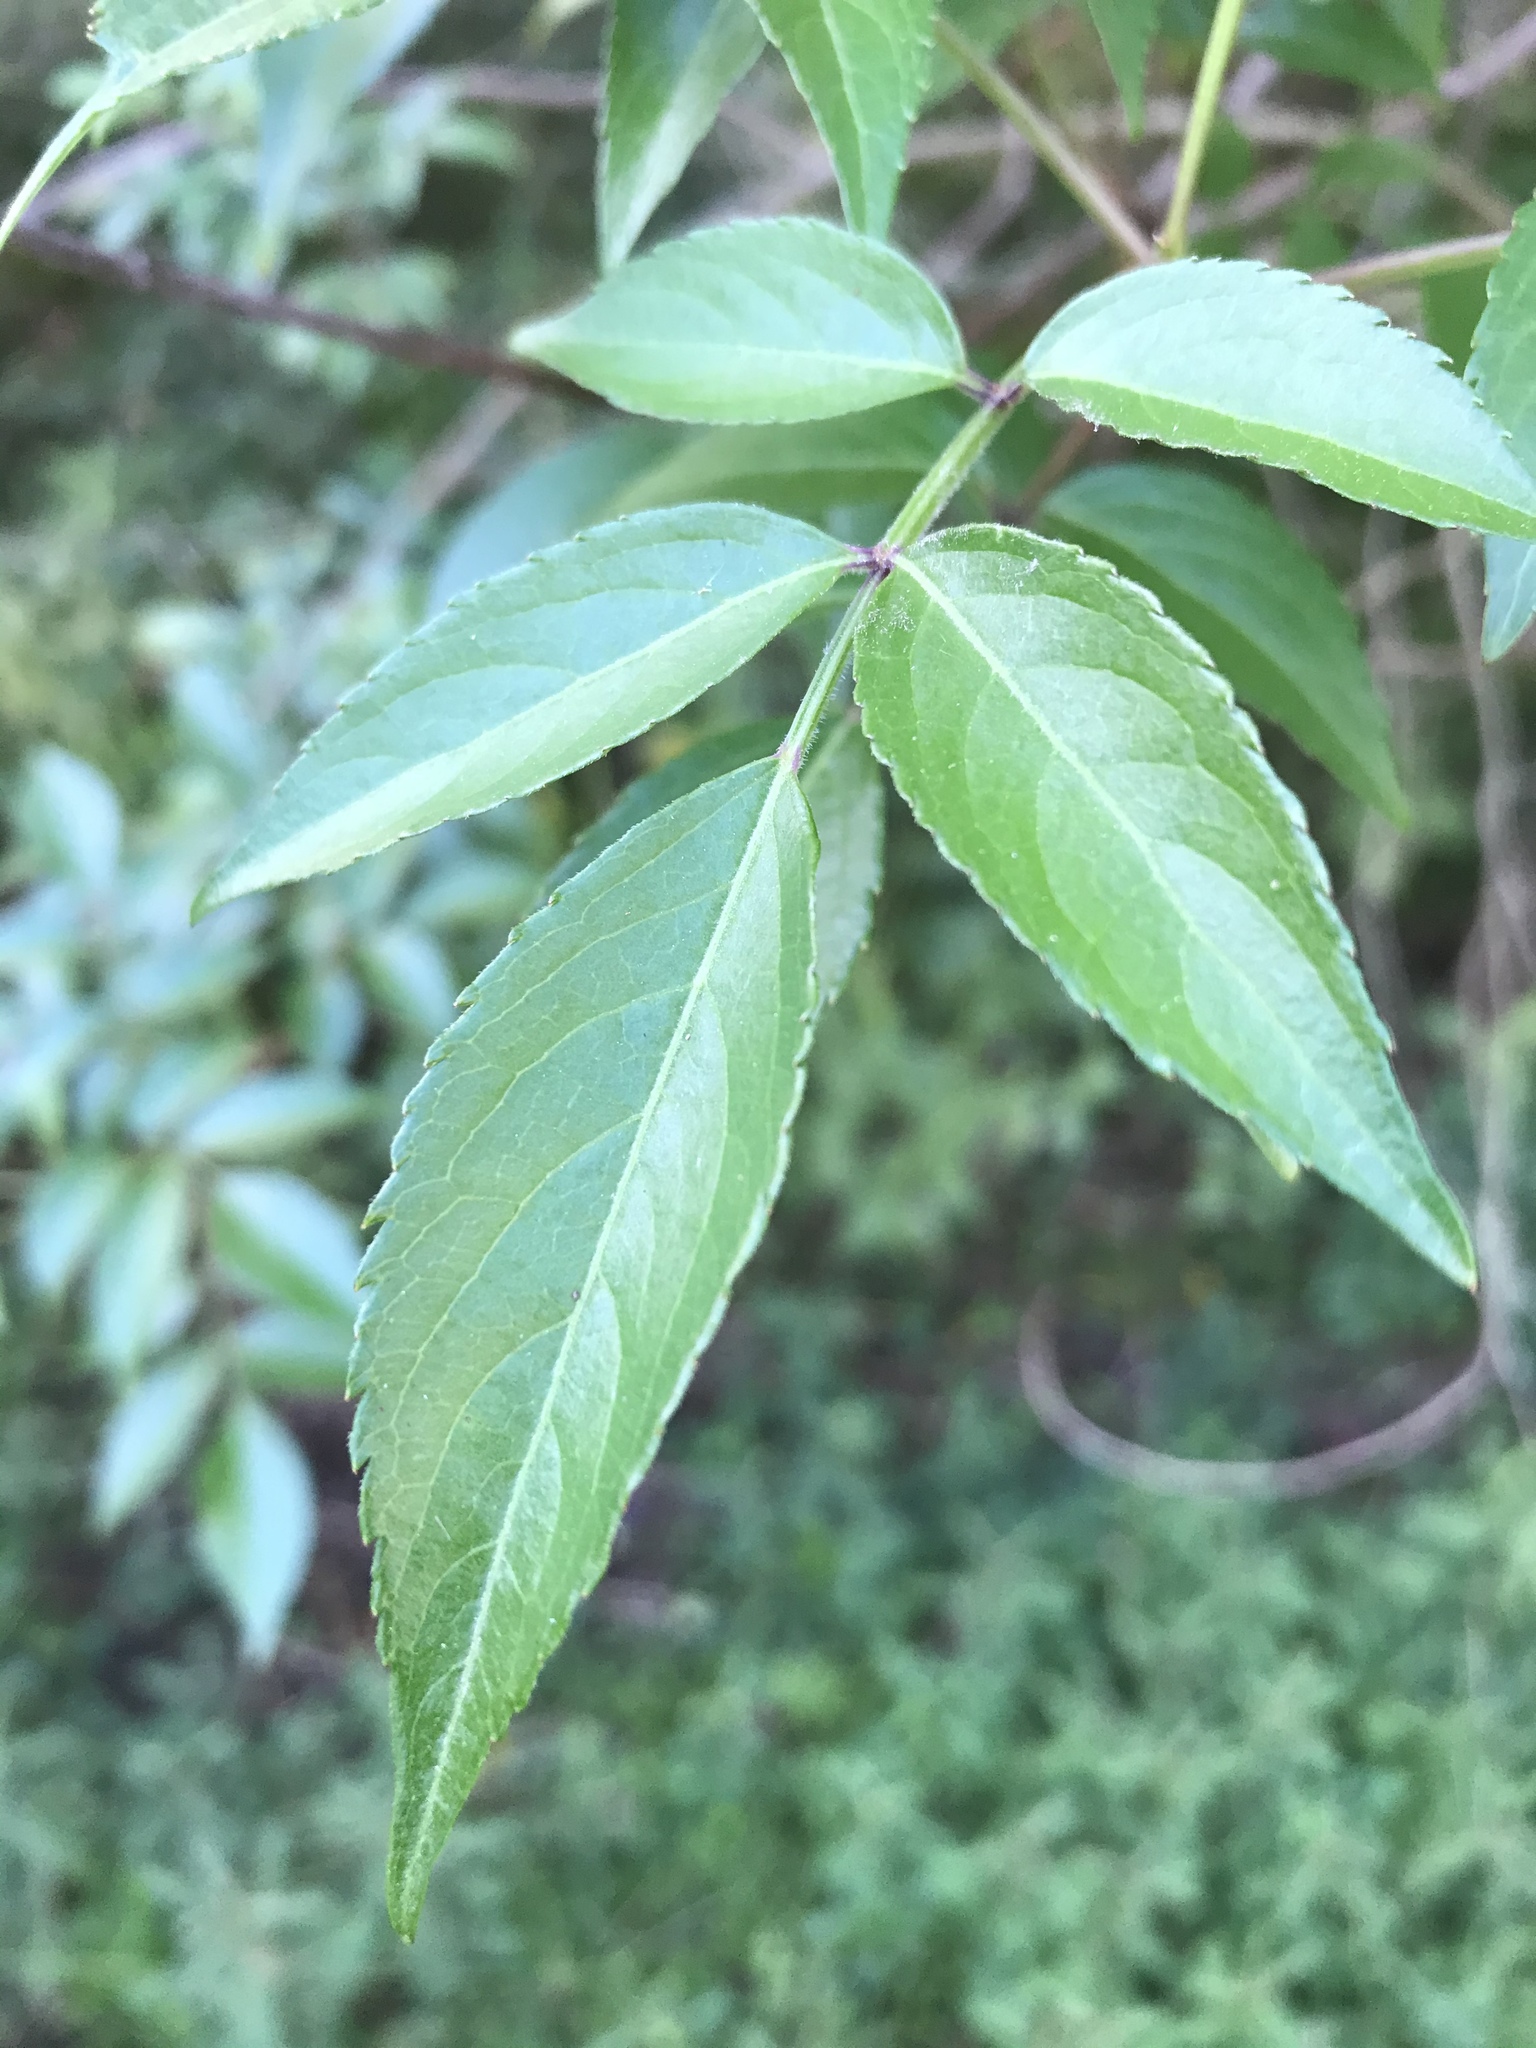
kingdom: Plantae
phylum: Tracheophyta
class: Magnoliopsida
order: Dipsacales
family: Viburnaceae
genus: Sambucus
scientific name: Sambucus canadensis
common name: American elder
